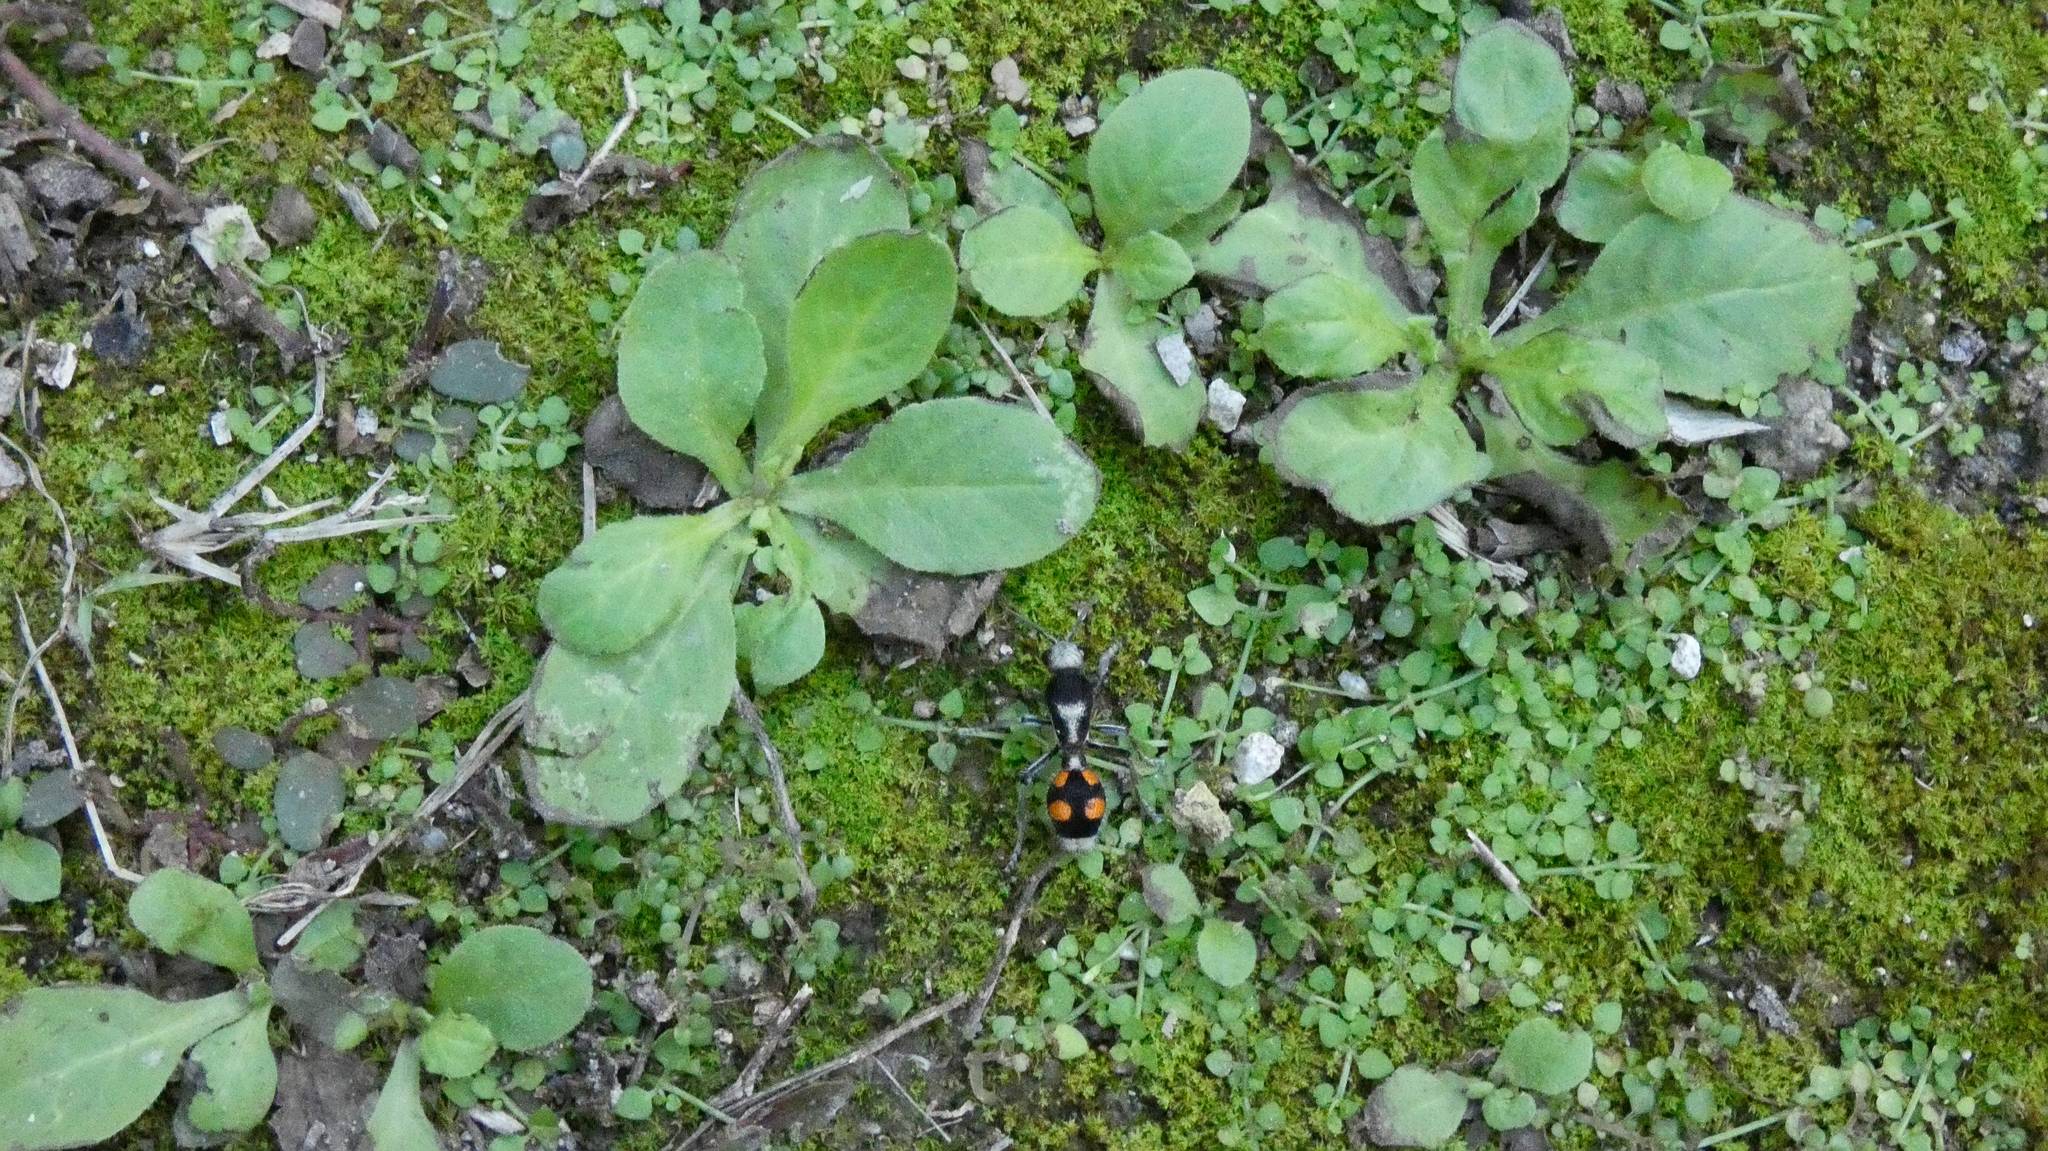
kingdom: Animalia
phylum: Arthropoda
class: Insecta
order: Hymenoptera
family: Mutillidae
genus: Dasymutilla
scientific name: Dasymutilla paraparadoxa
